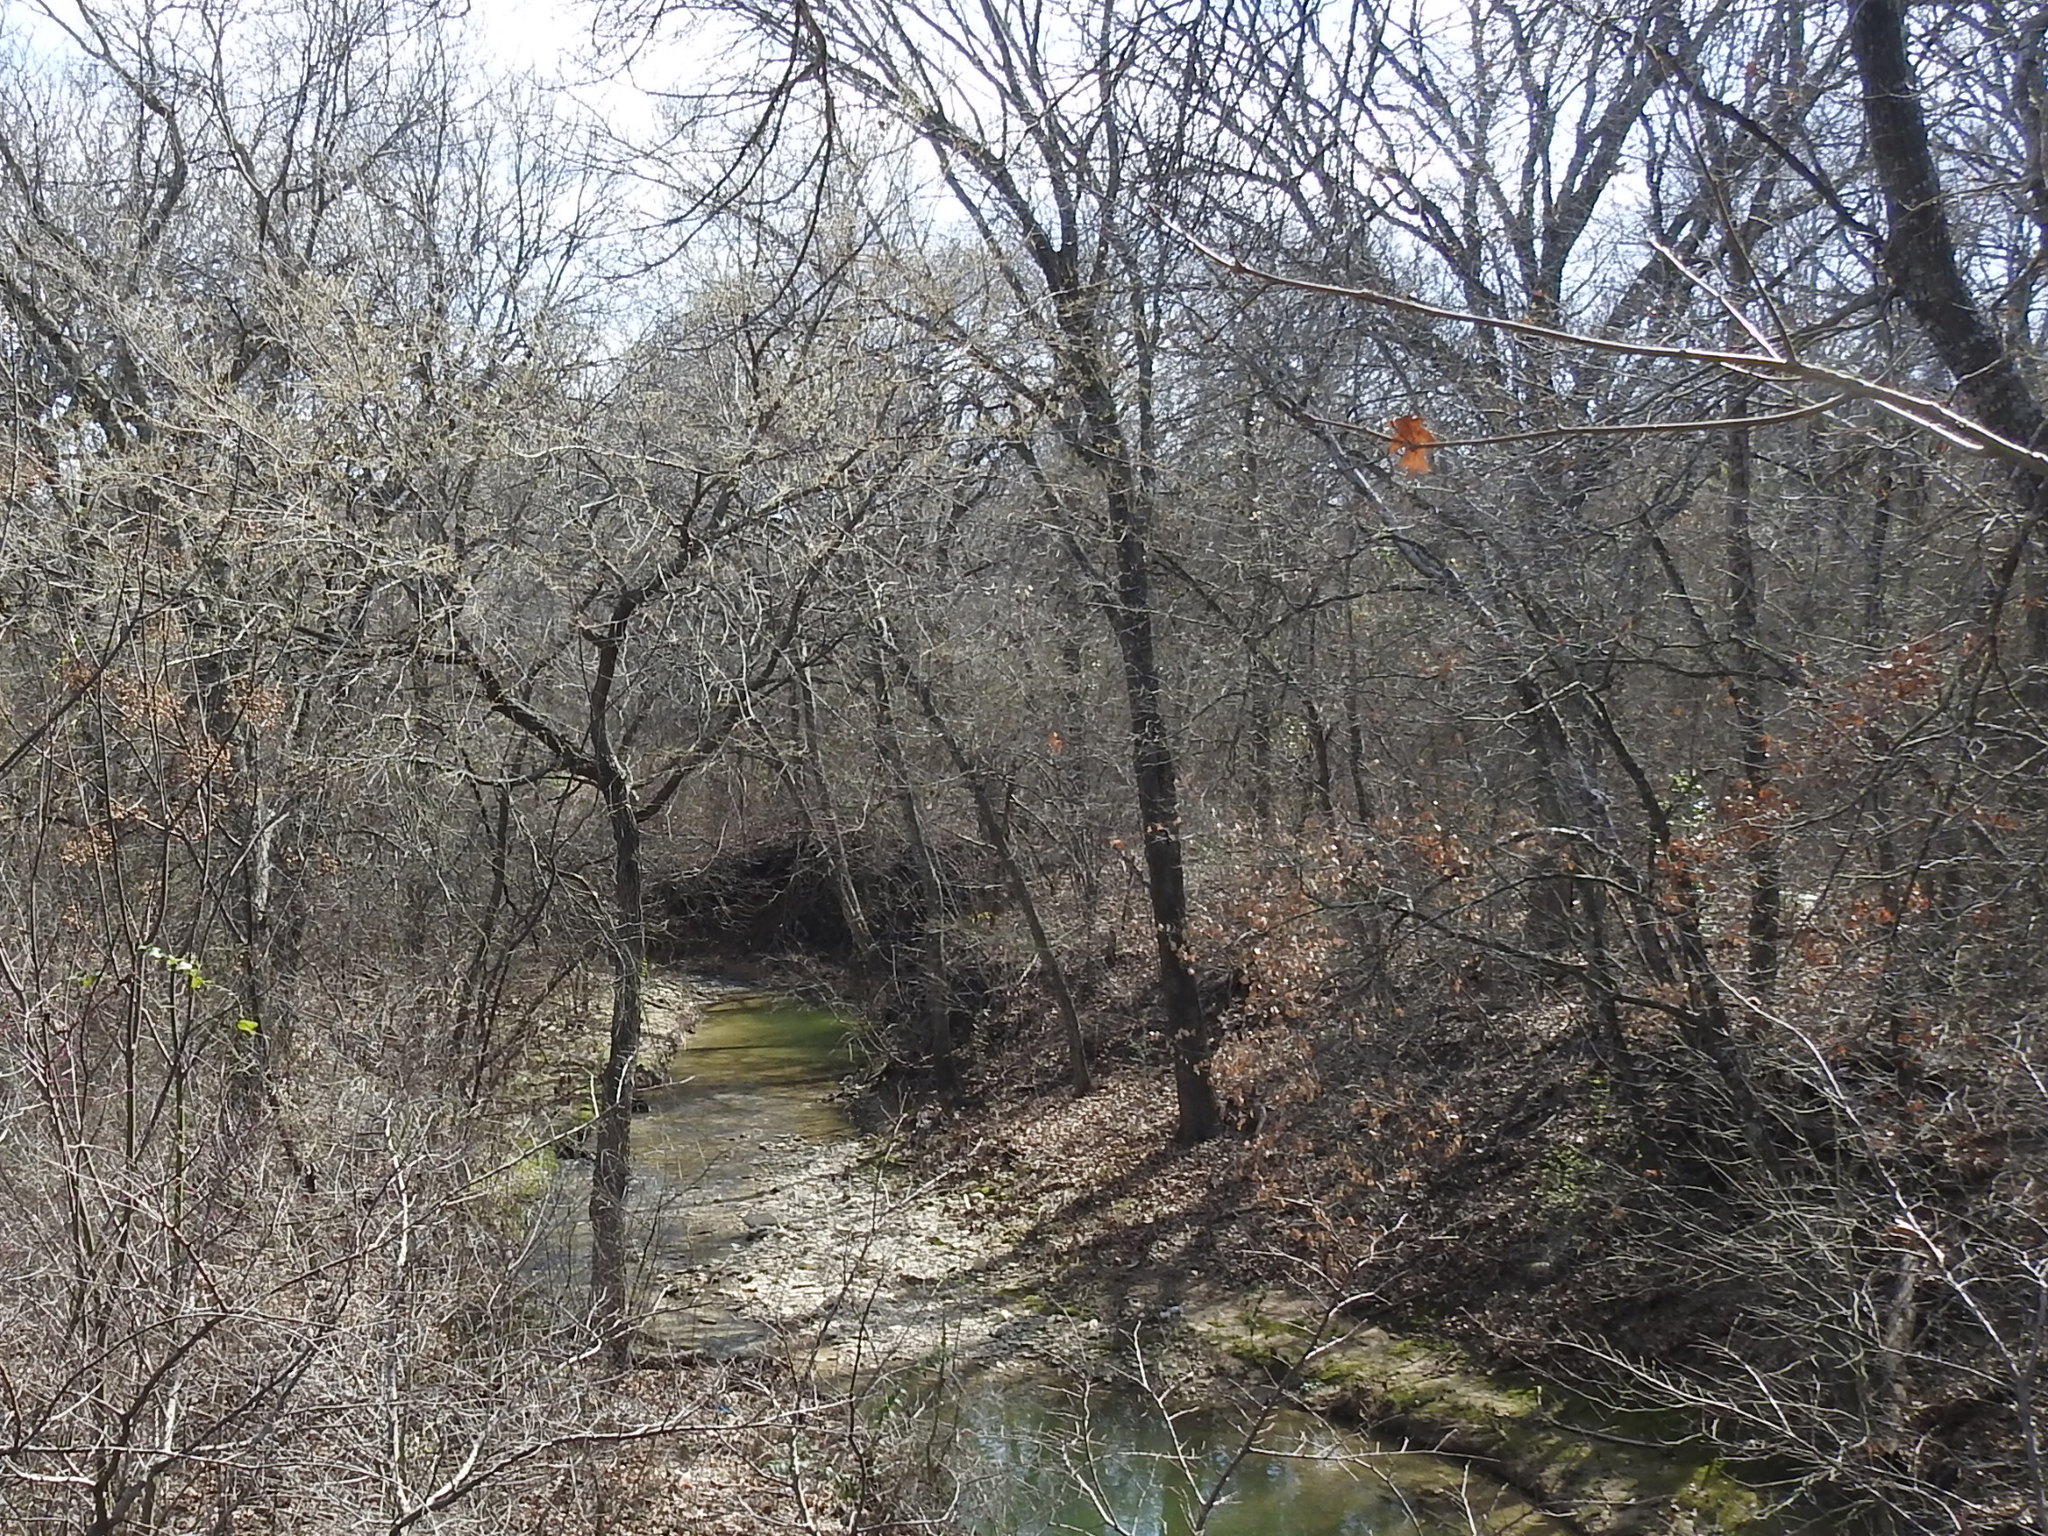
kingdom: Plantae
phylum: Tracheophyta
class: Magnoliopsida
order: Rosales
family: Ulmaceae
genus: Ulmus
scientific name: Ulmus americana
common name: American elm
